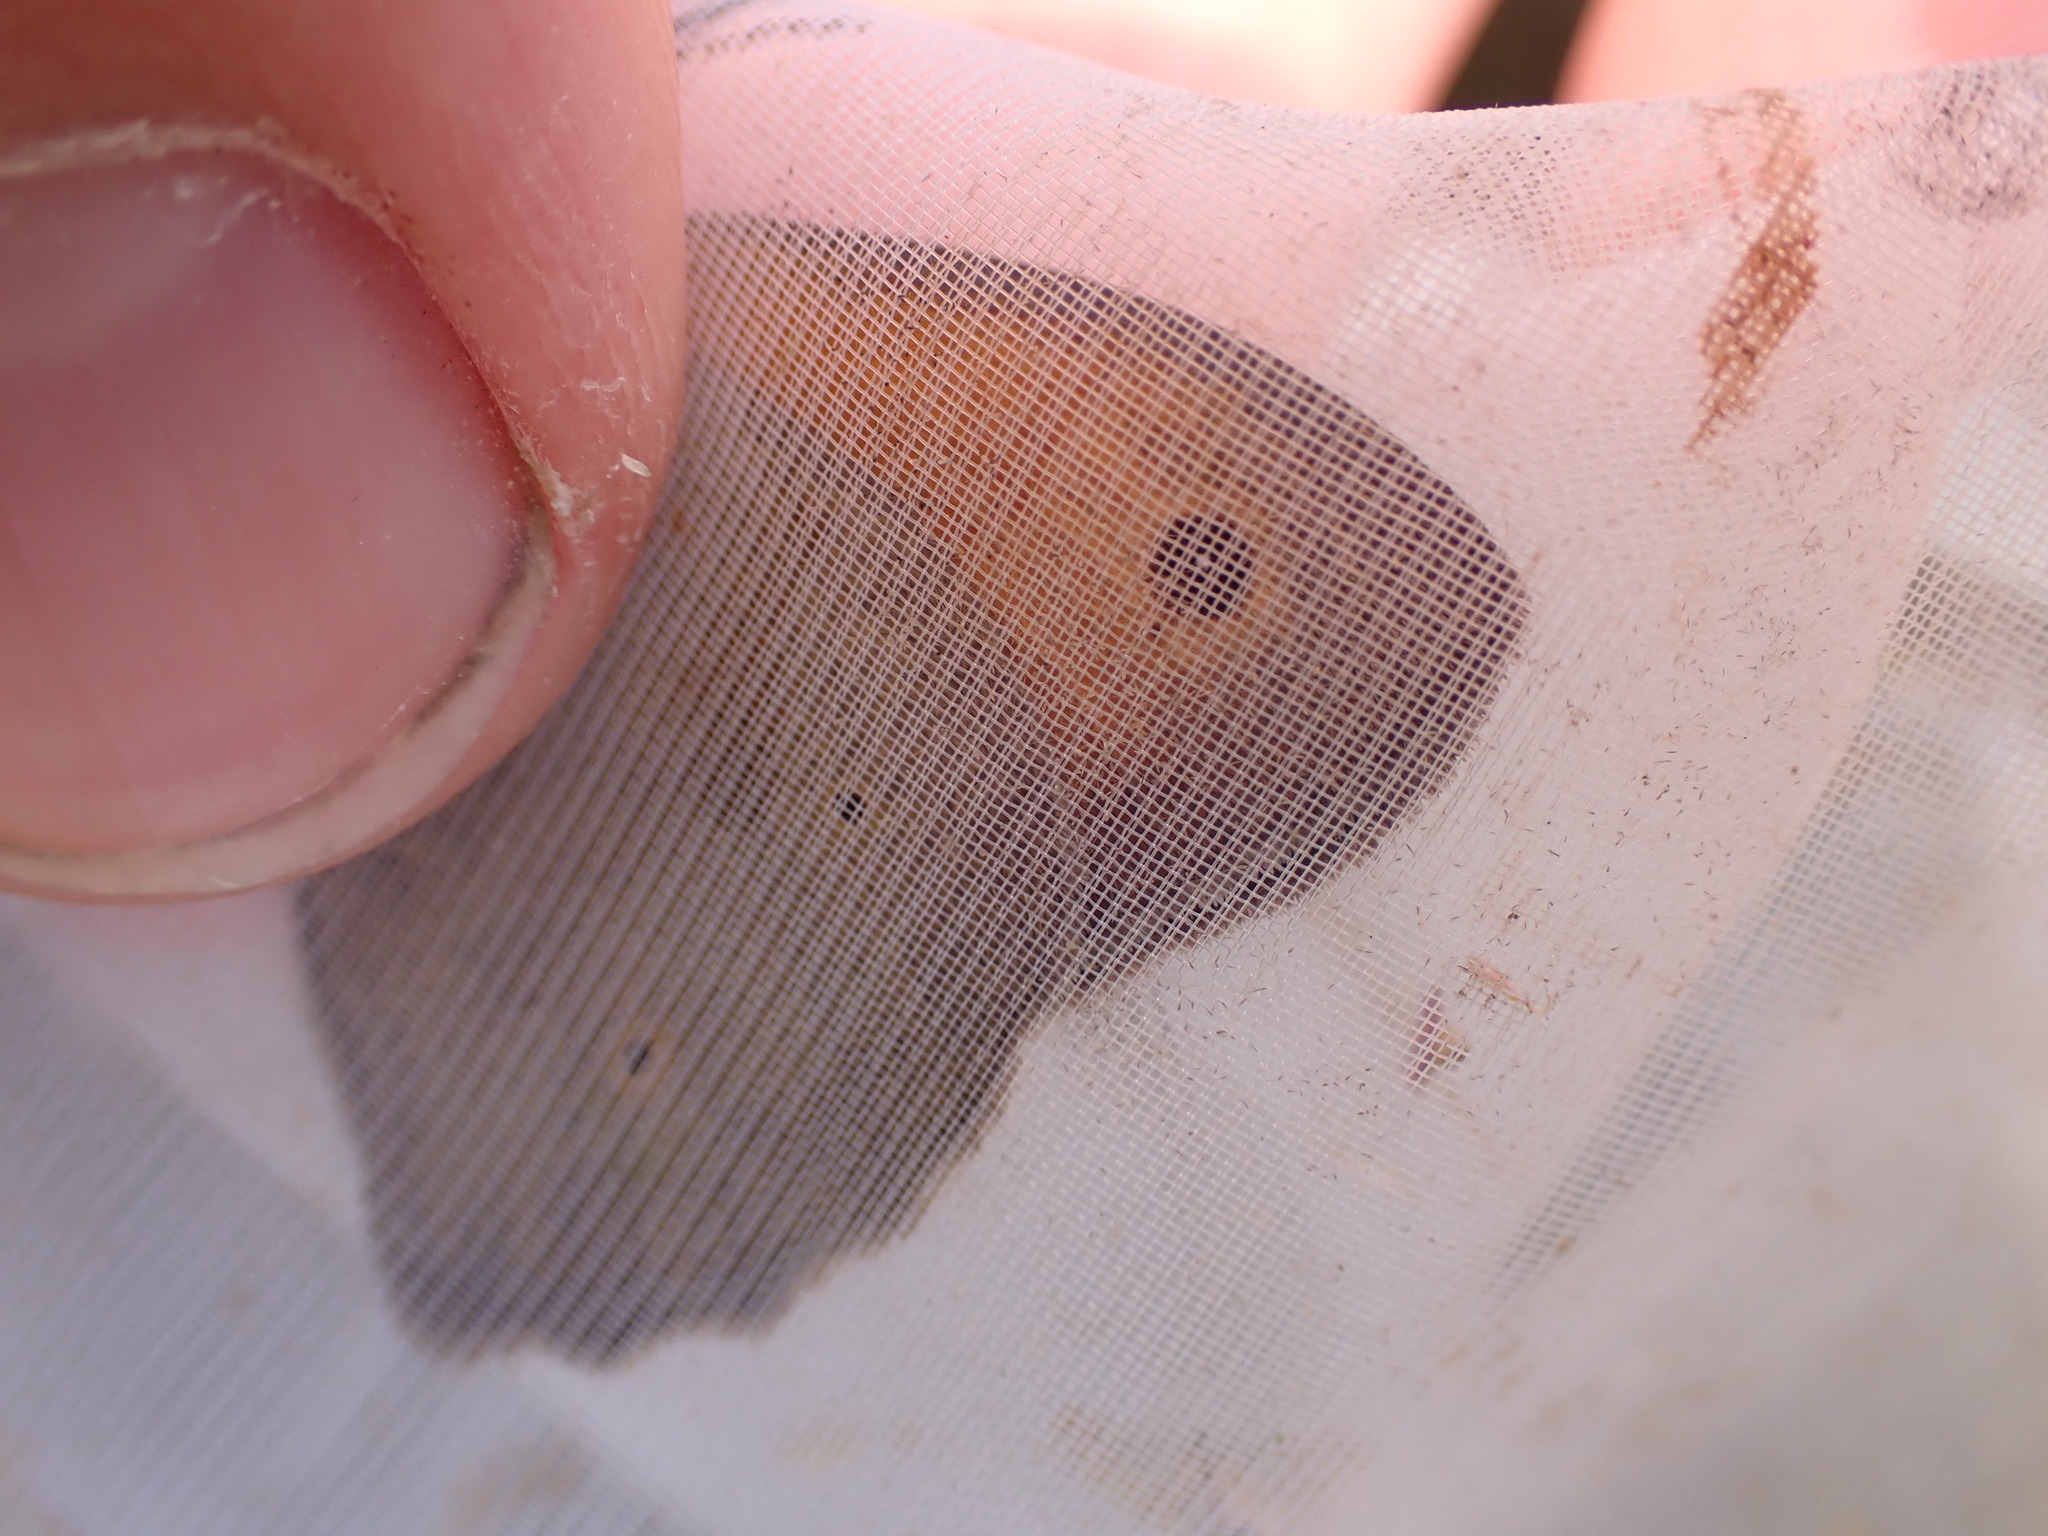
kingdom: Animalia
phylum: Arthropoda
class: Insecta
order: Lepidoptera
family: Nymphalidae
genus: Maniola
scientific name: Maniola jurtina
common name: Meadow brown
